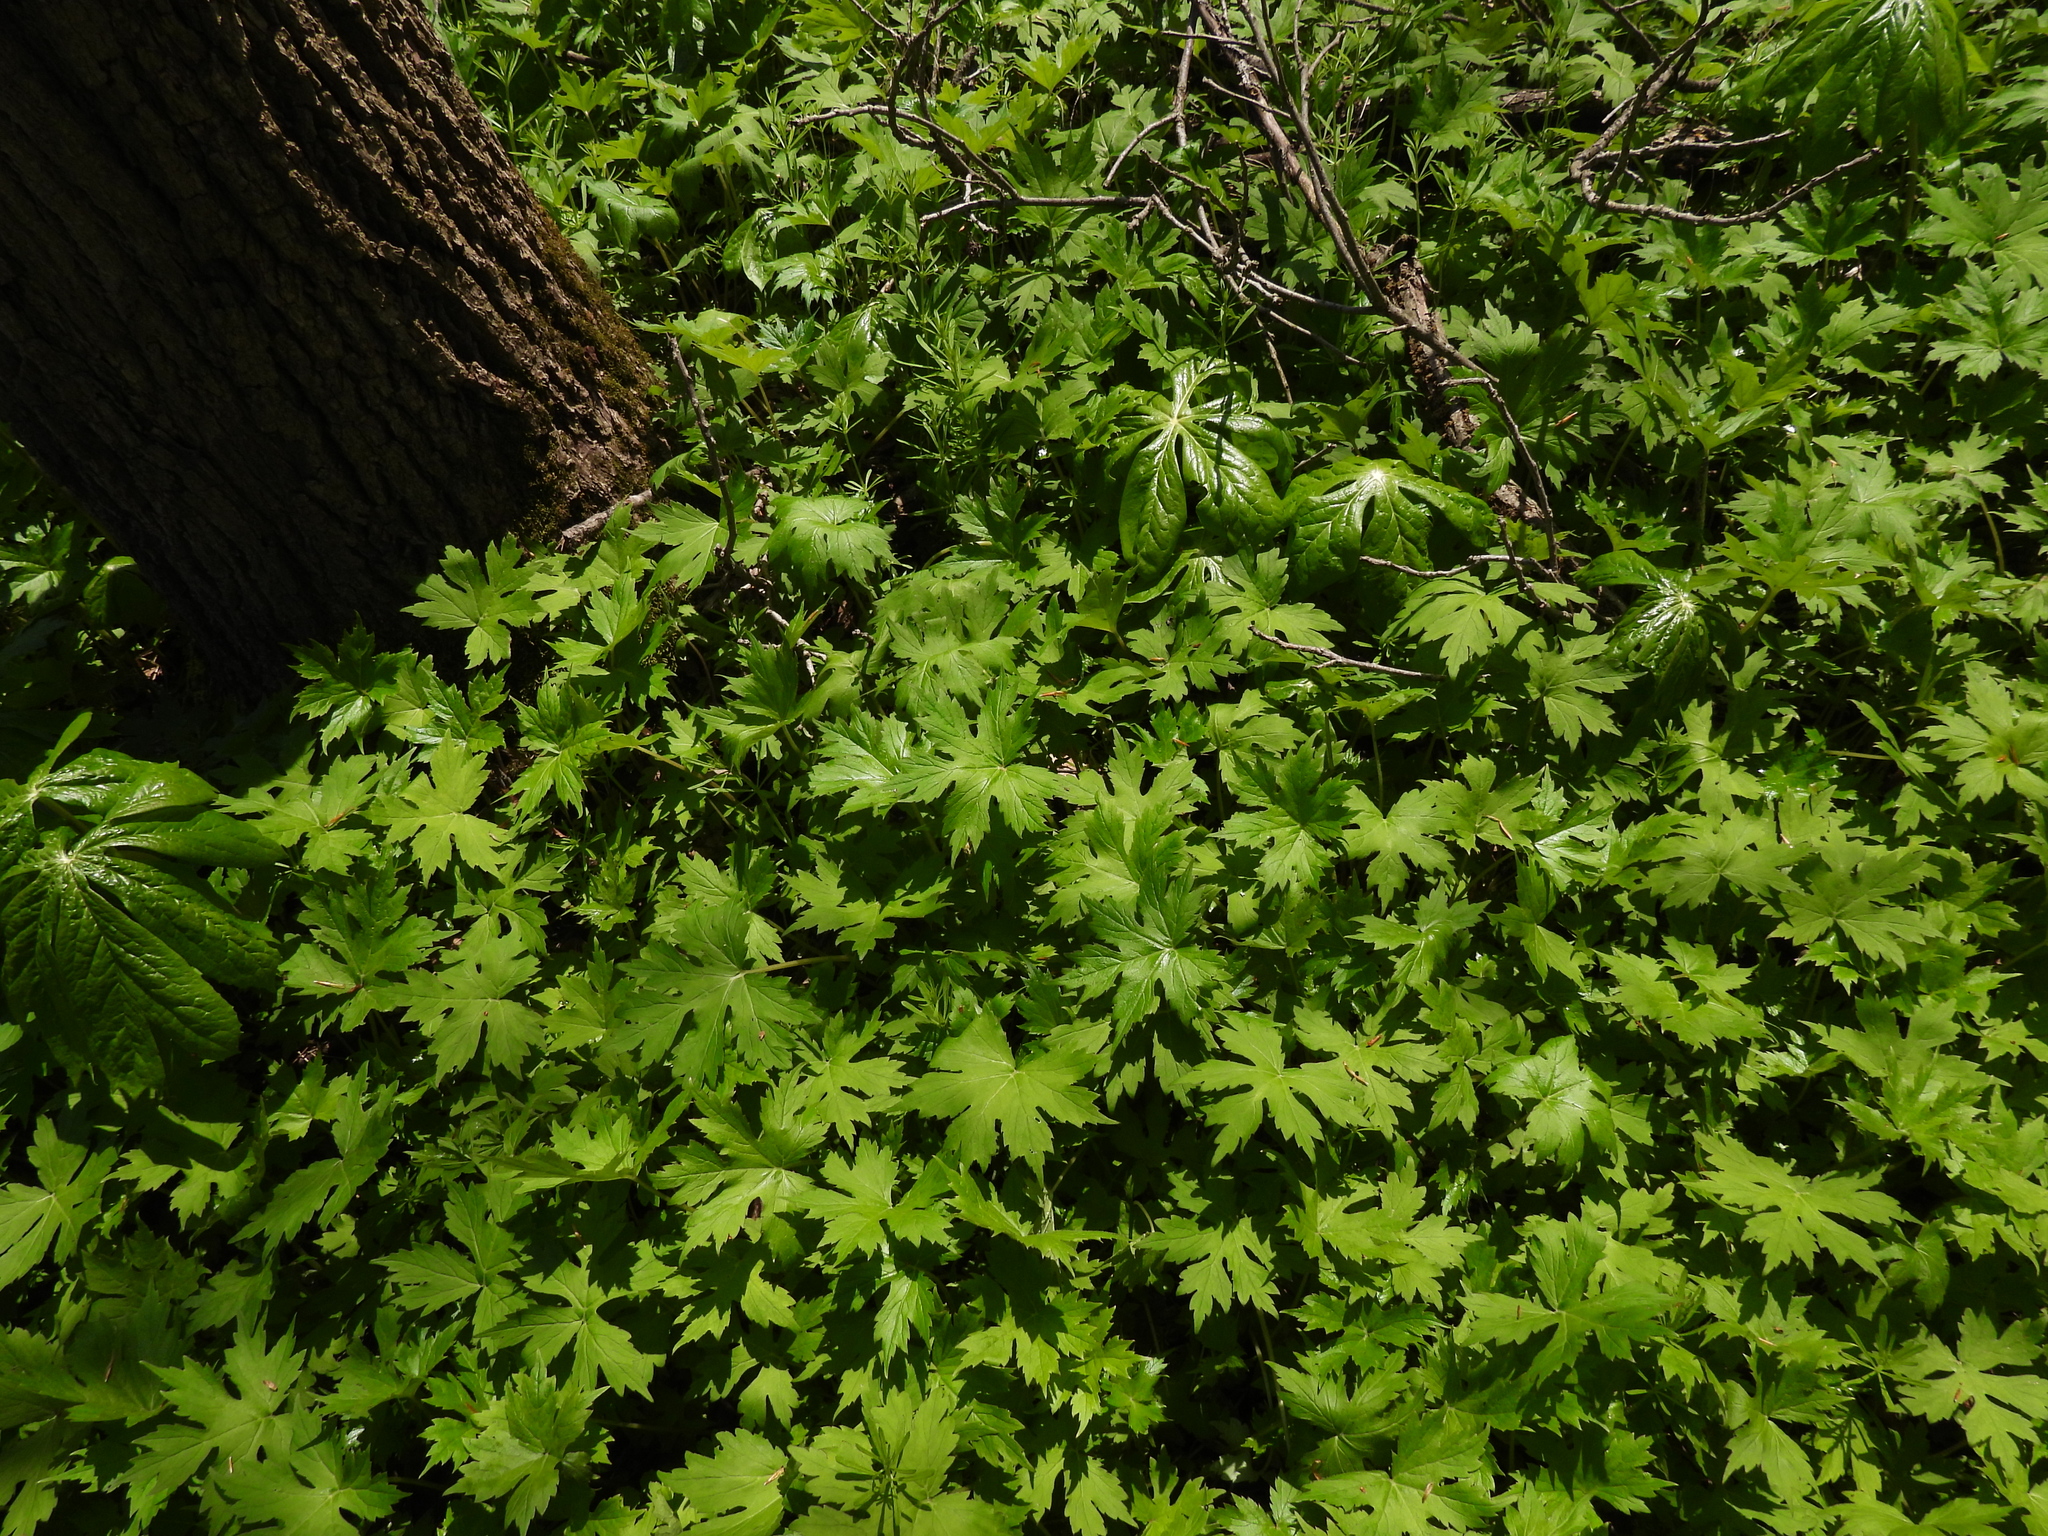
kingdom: Plantae
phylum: Tracheophyta
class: Magnoliopsida
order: Boraginales
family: Hydrophyllaceae
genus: Hydrophyllum
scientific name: Hydrophyllum canadense
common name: Canada waterleaf
